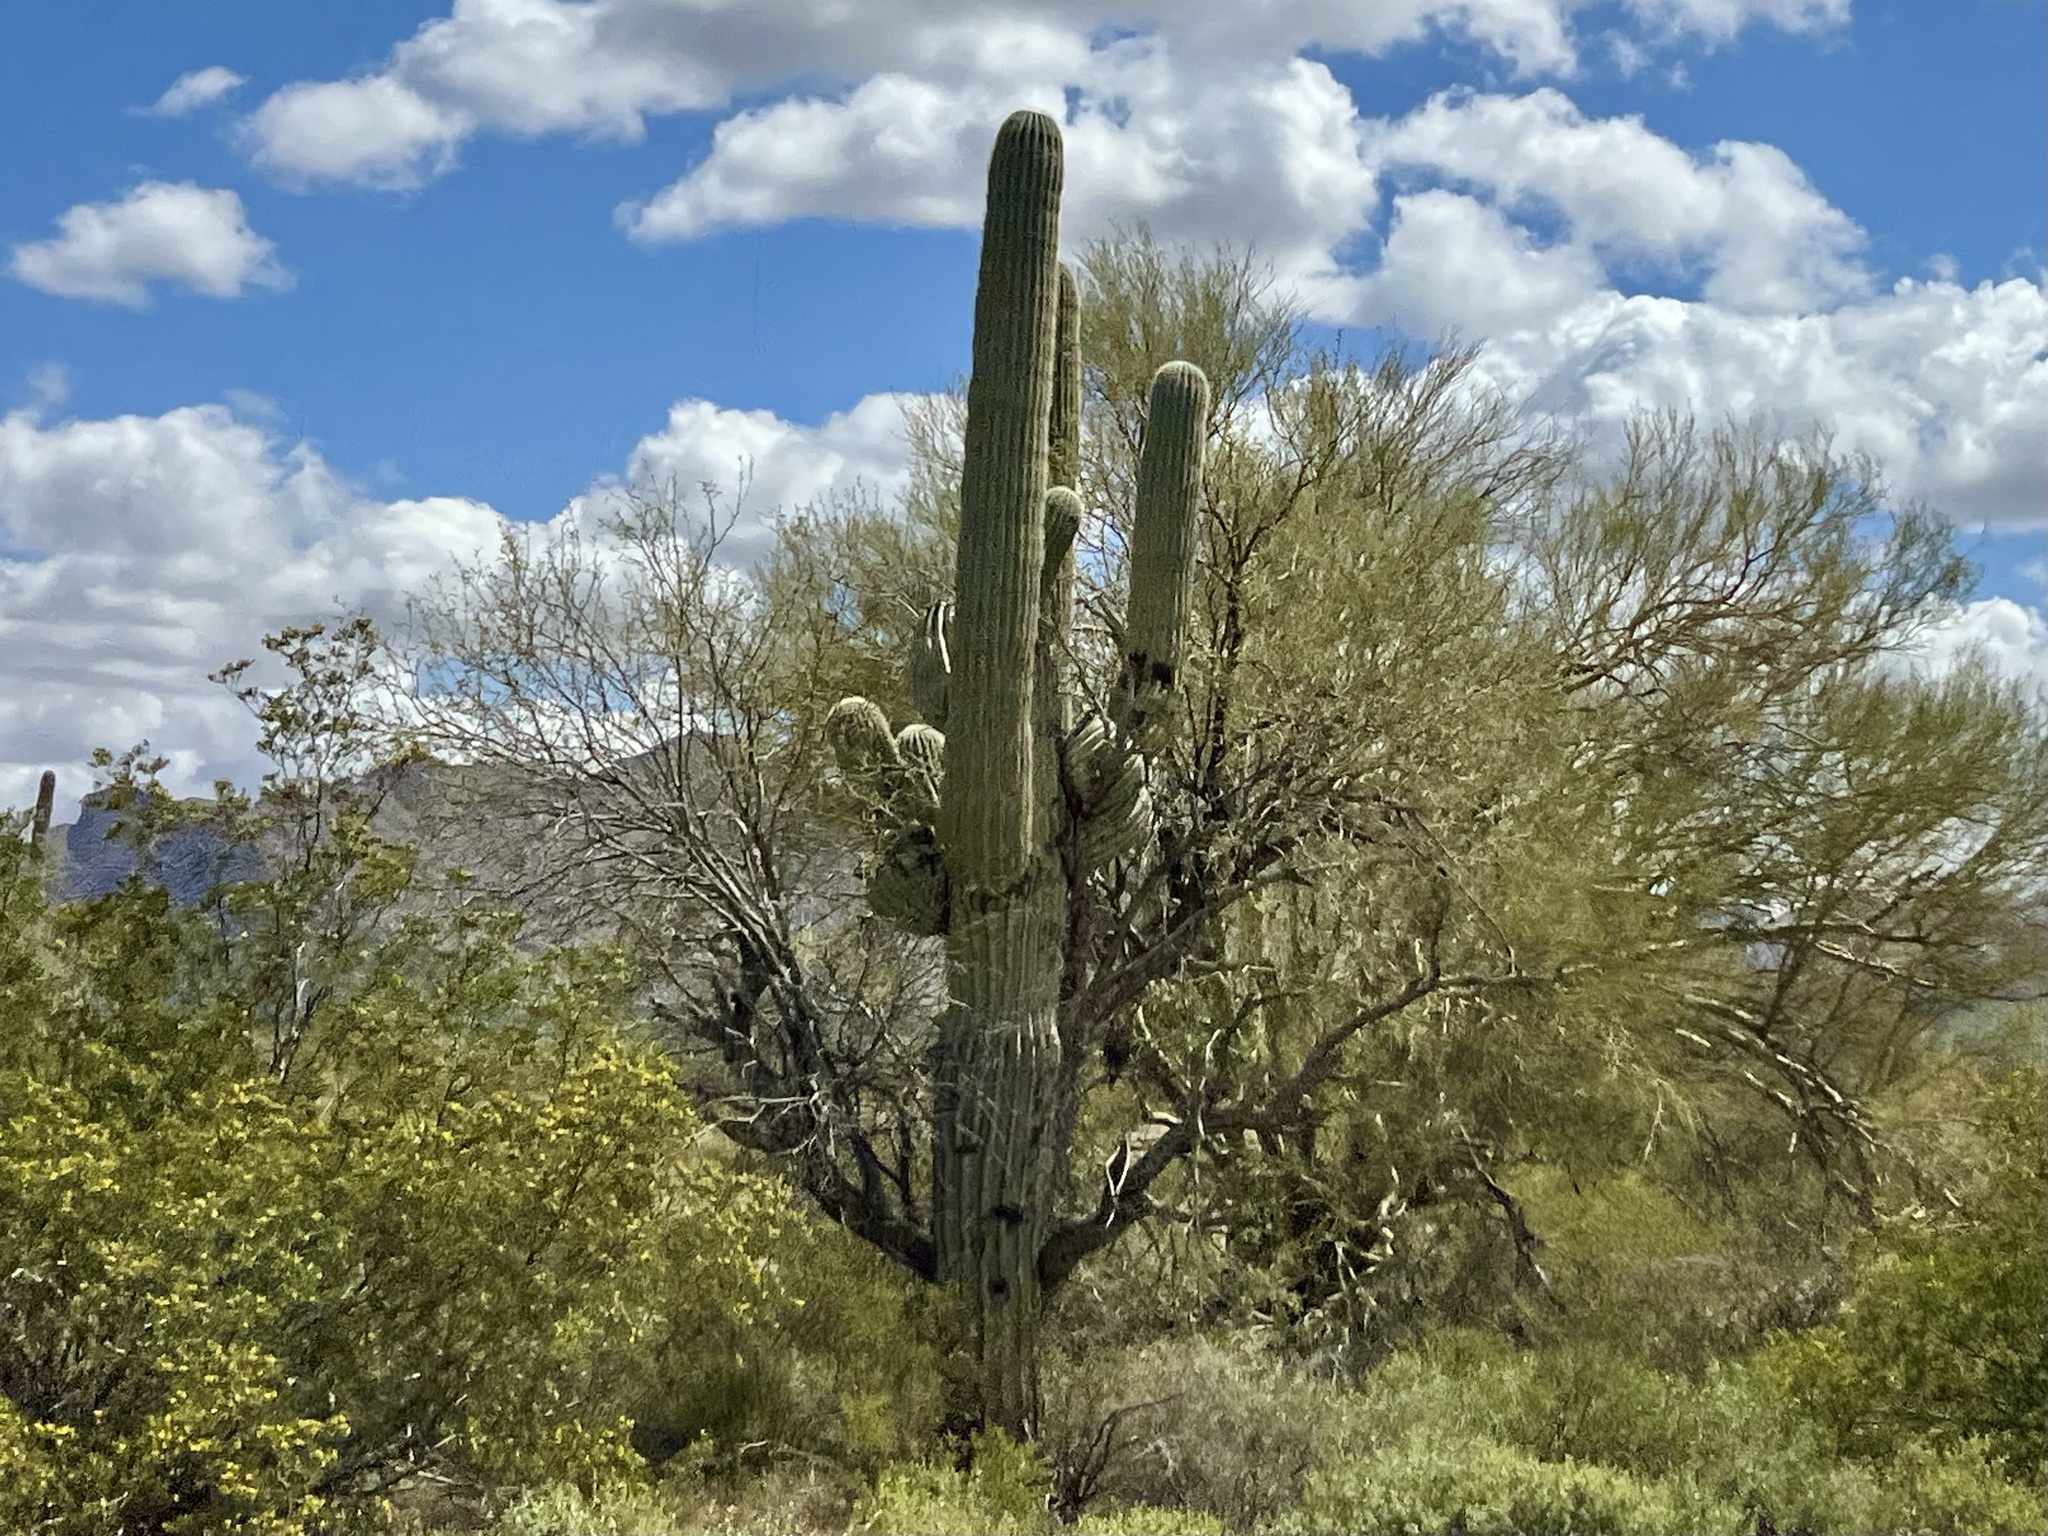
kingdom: Plantae
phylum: Tracheophyta
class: Magnoliopsida
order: Caryophyllales
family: Cactaceae
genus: Carnegiea
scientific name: Carnegiea gigantea
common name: Saguaro
